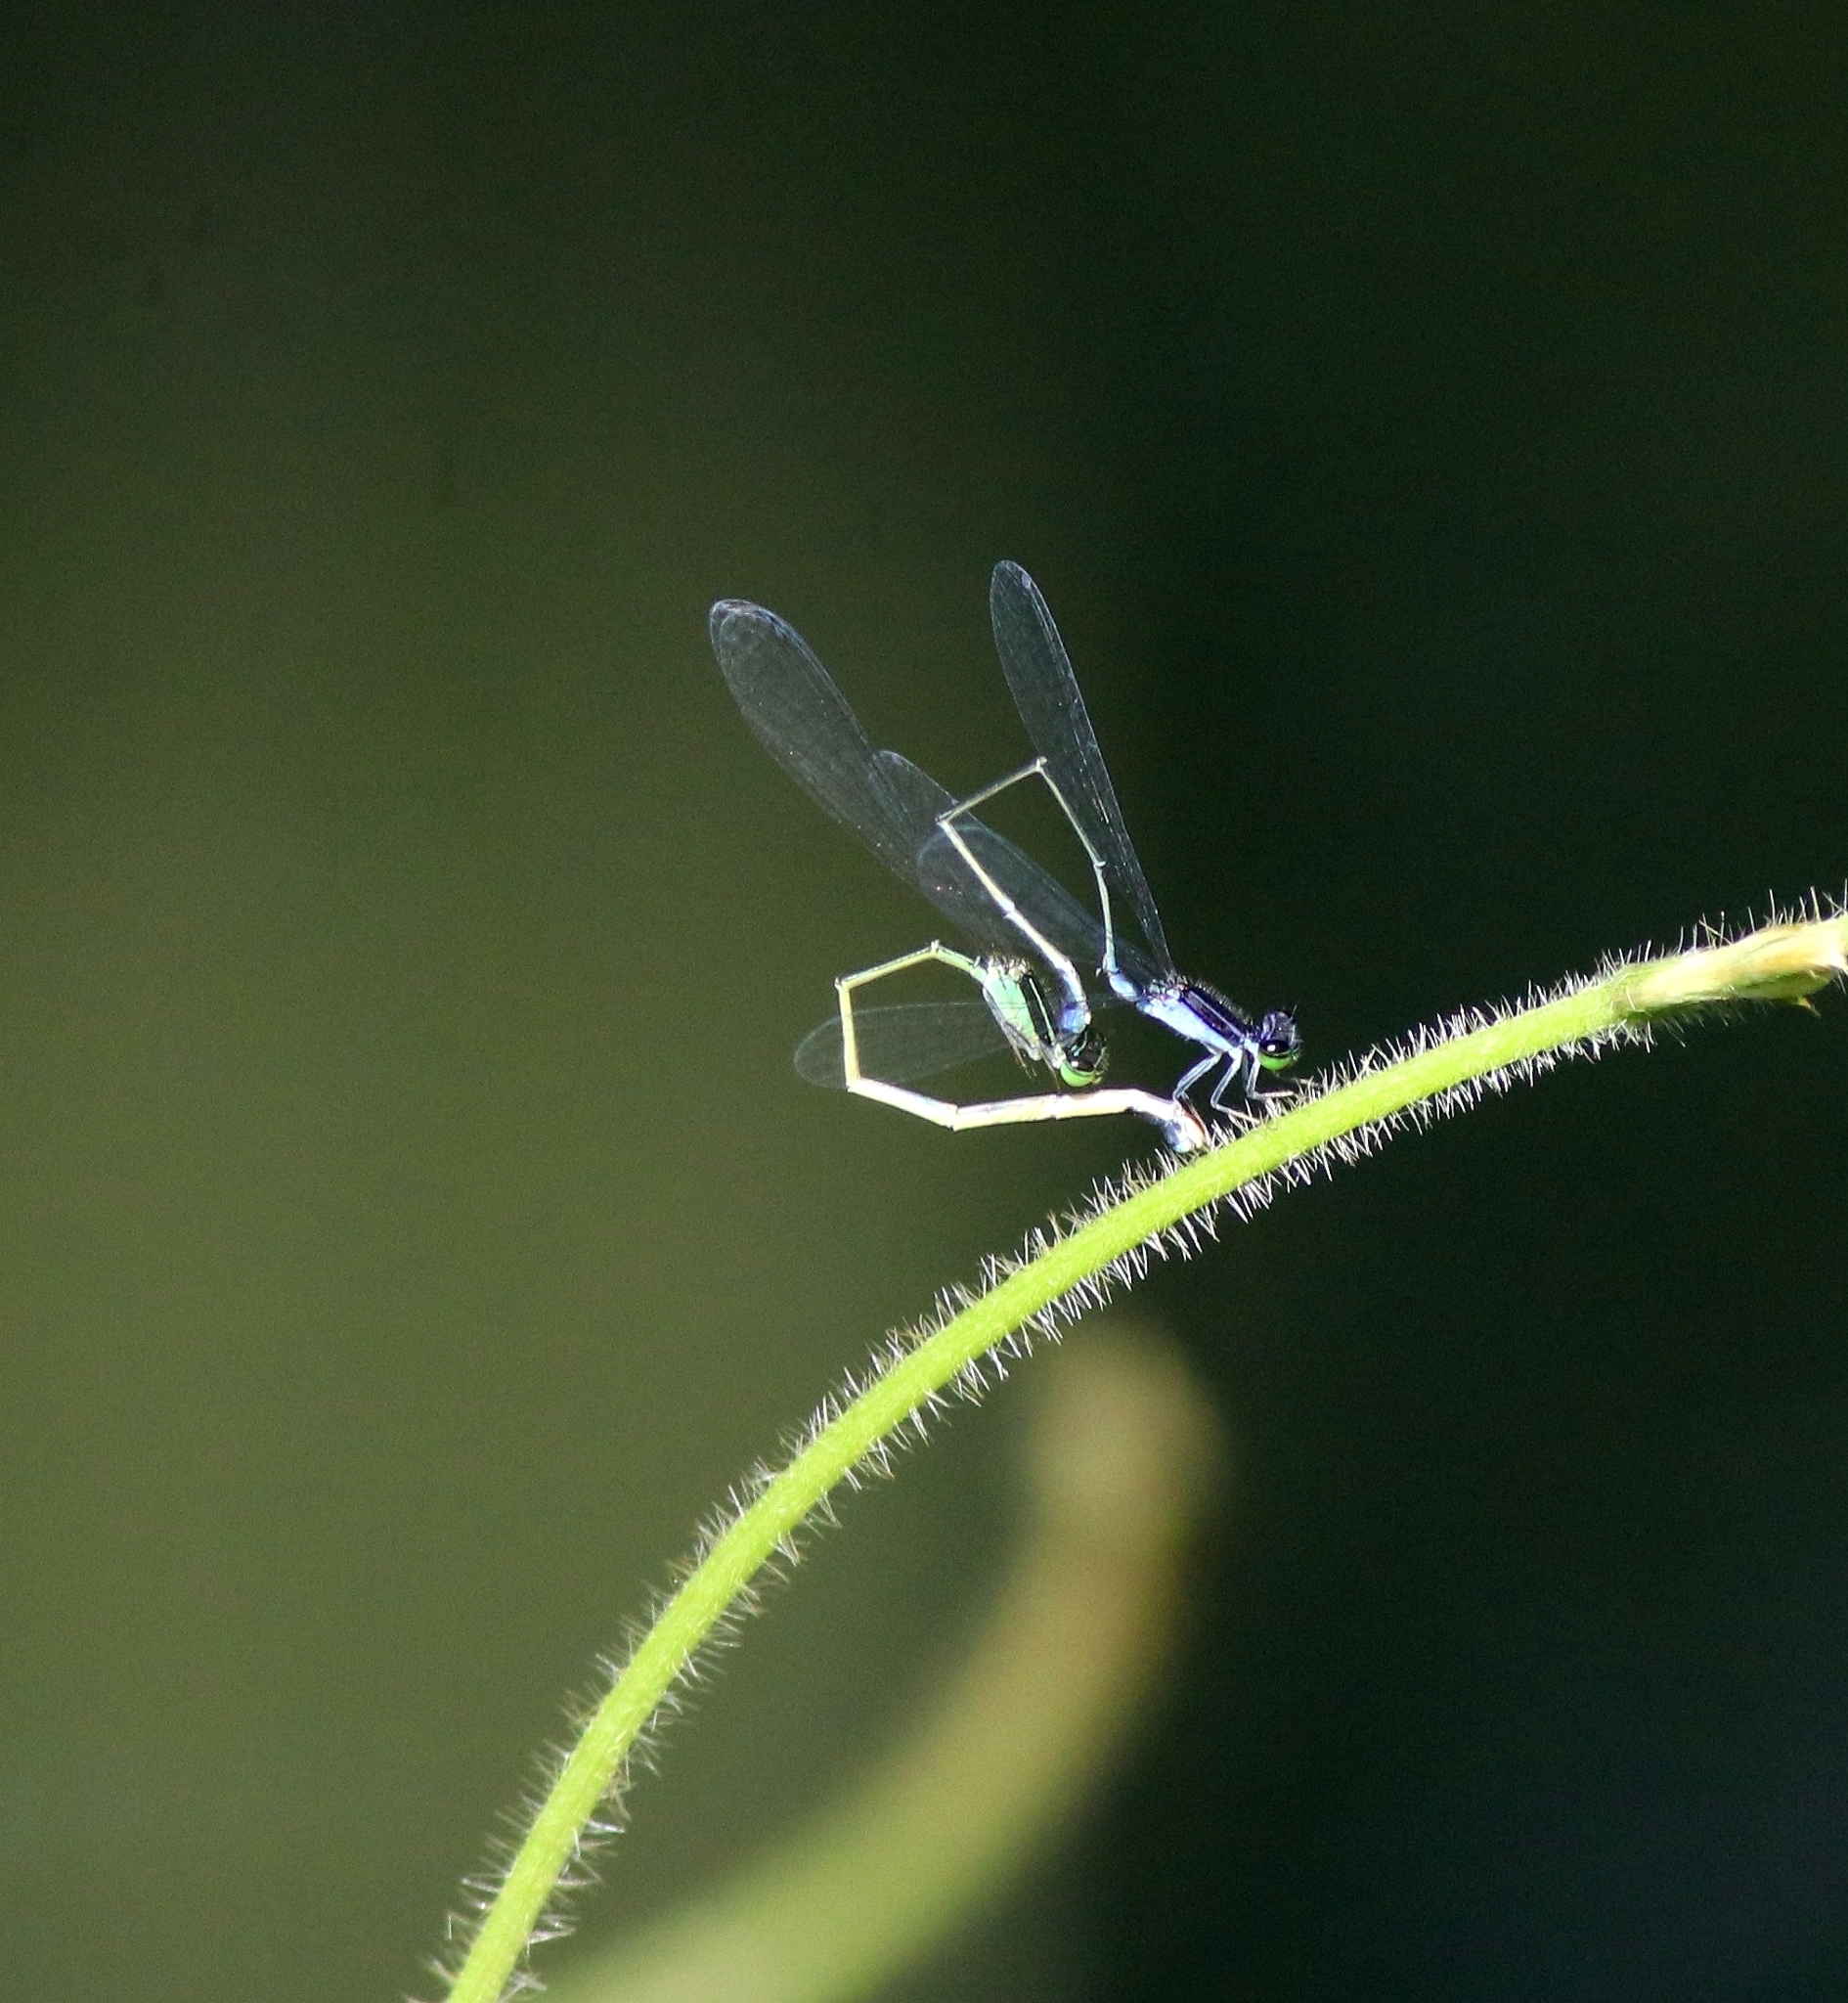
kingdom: Animalia
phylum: Arthropoda
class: Insecta
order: Odonata
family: Coenagrionidae
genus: Aciagrion
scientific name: Aciagrion approximans
